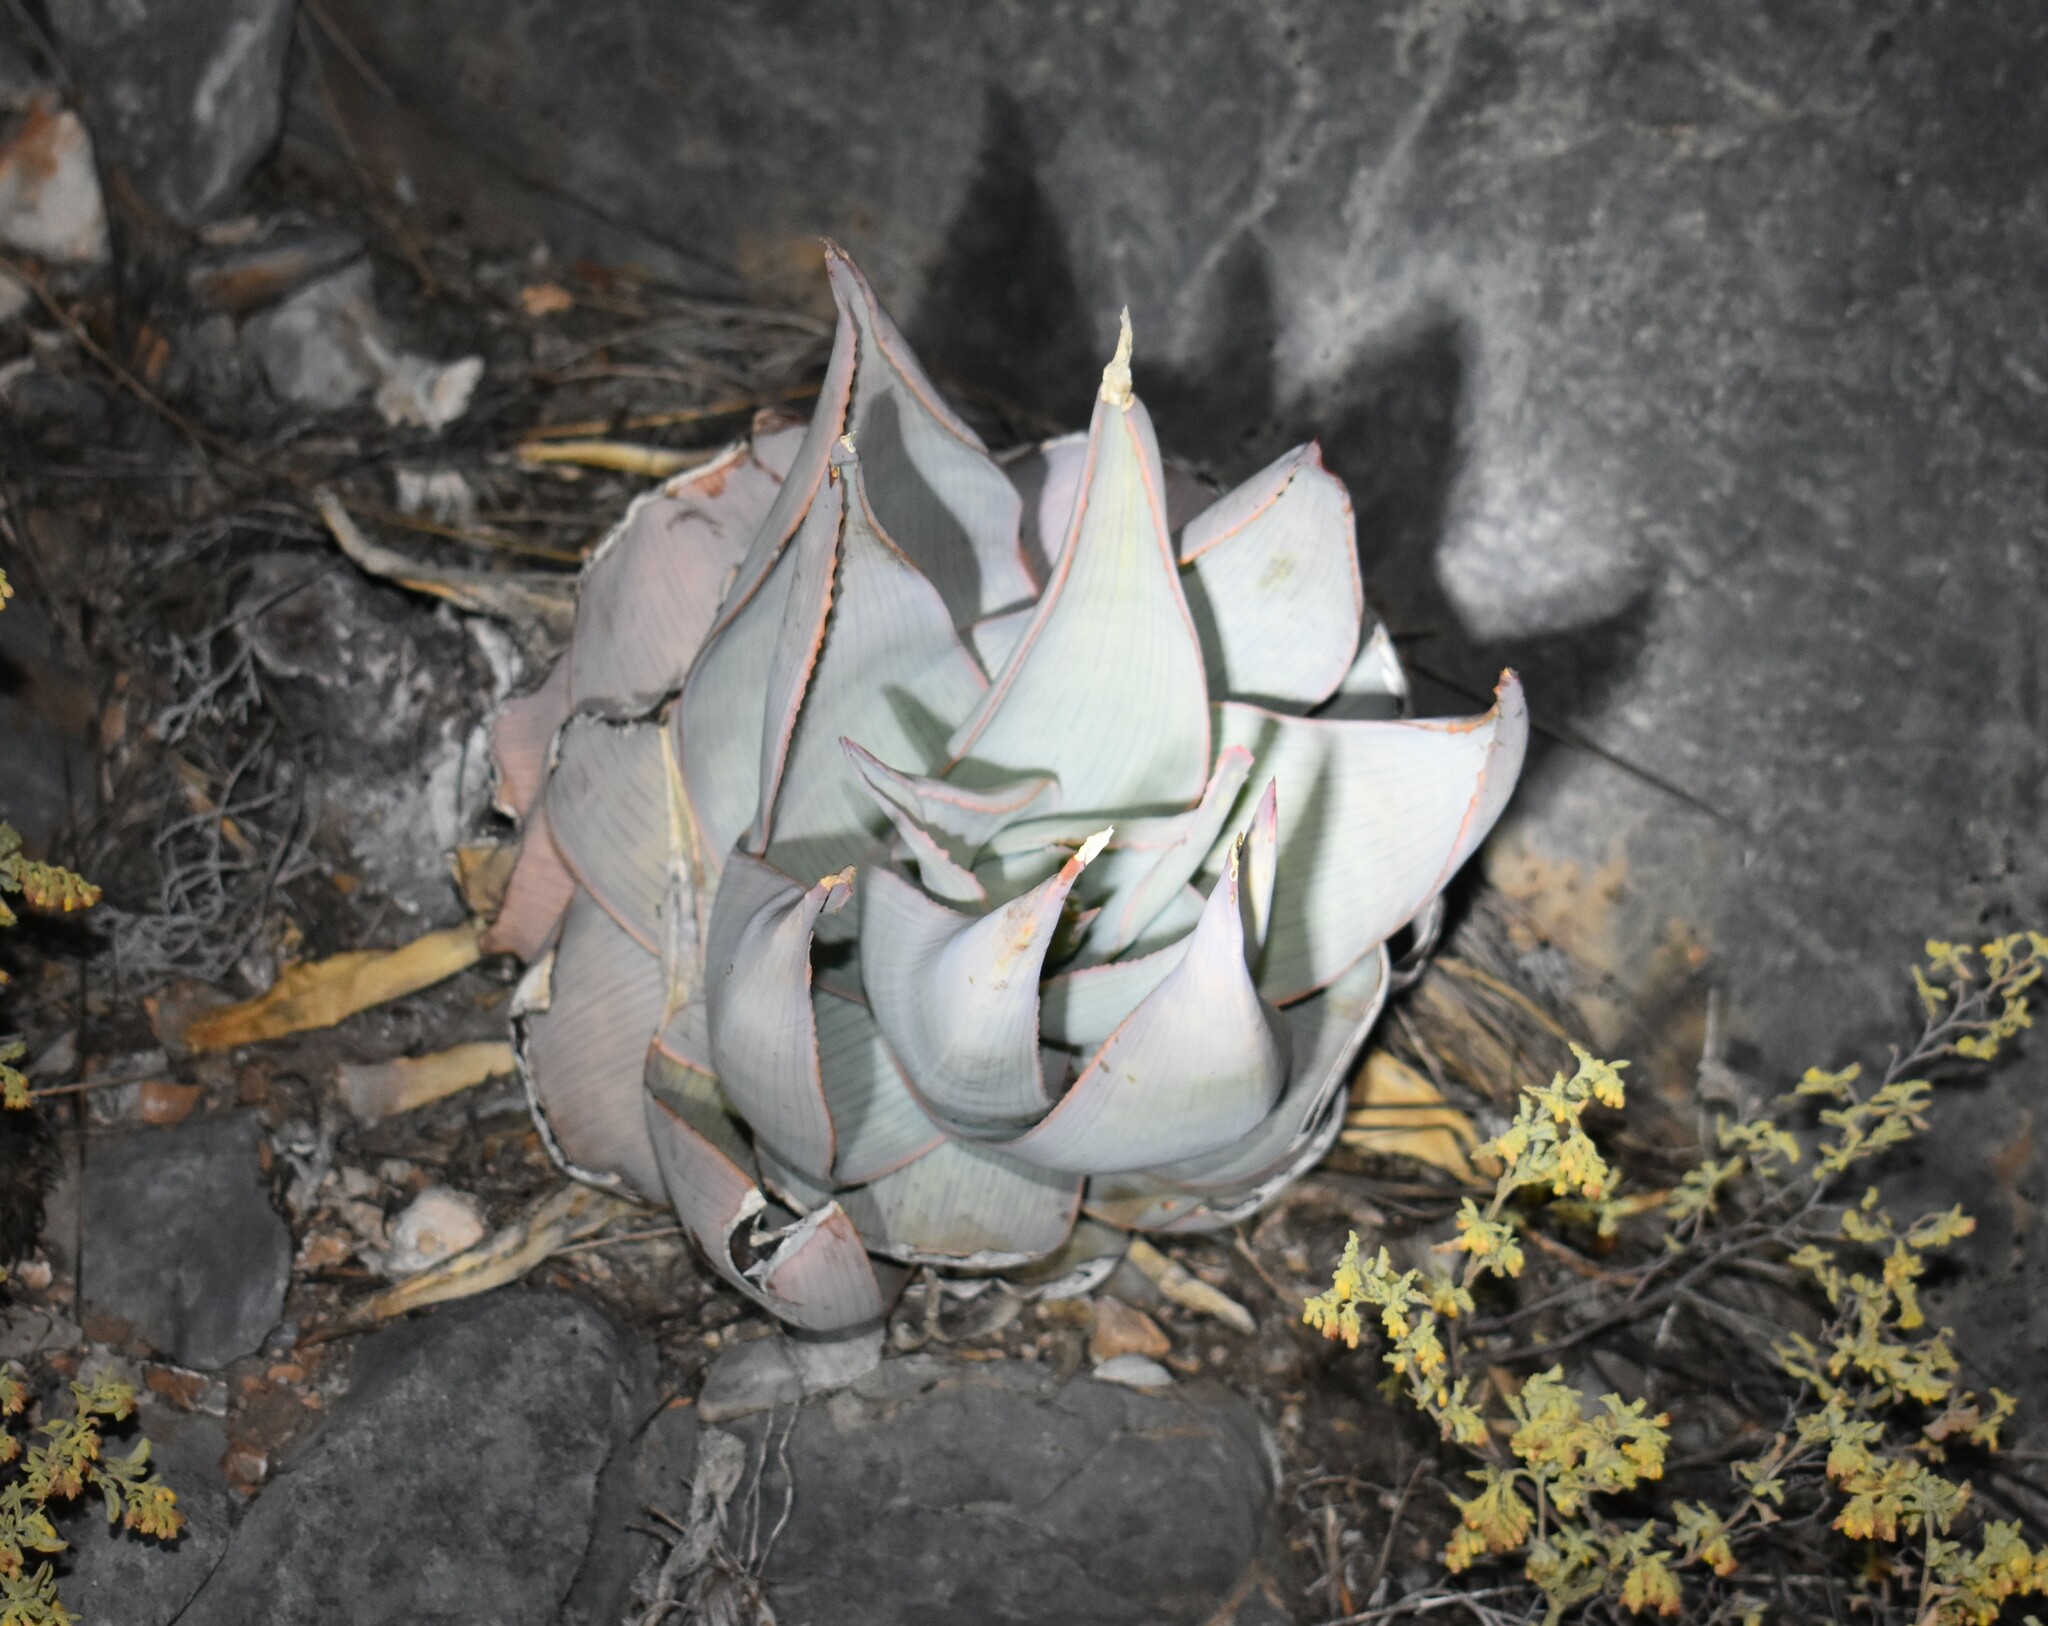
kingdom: Plantae
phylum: Tracheophyta
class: Liliopsida
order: Asparagales
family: Asphodelaceae
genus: Aloe
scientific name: Aloe striata
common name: Coral aloe
